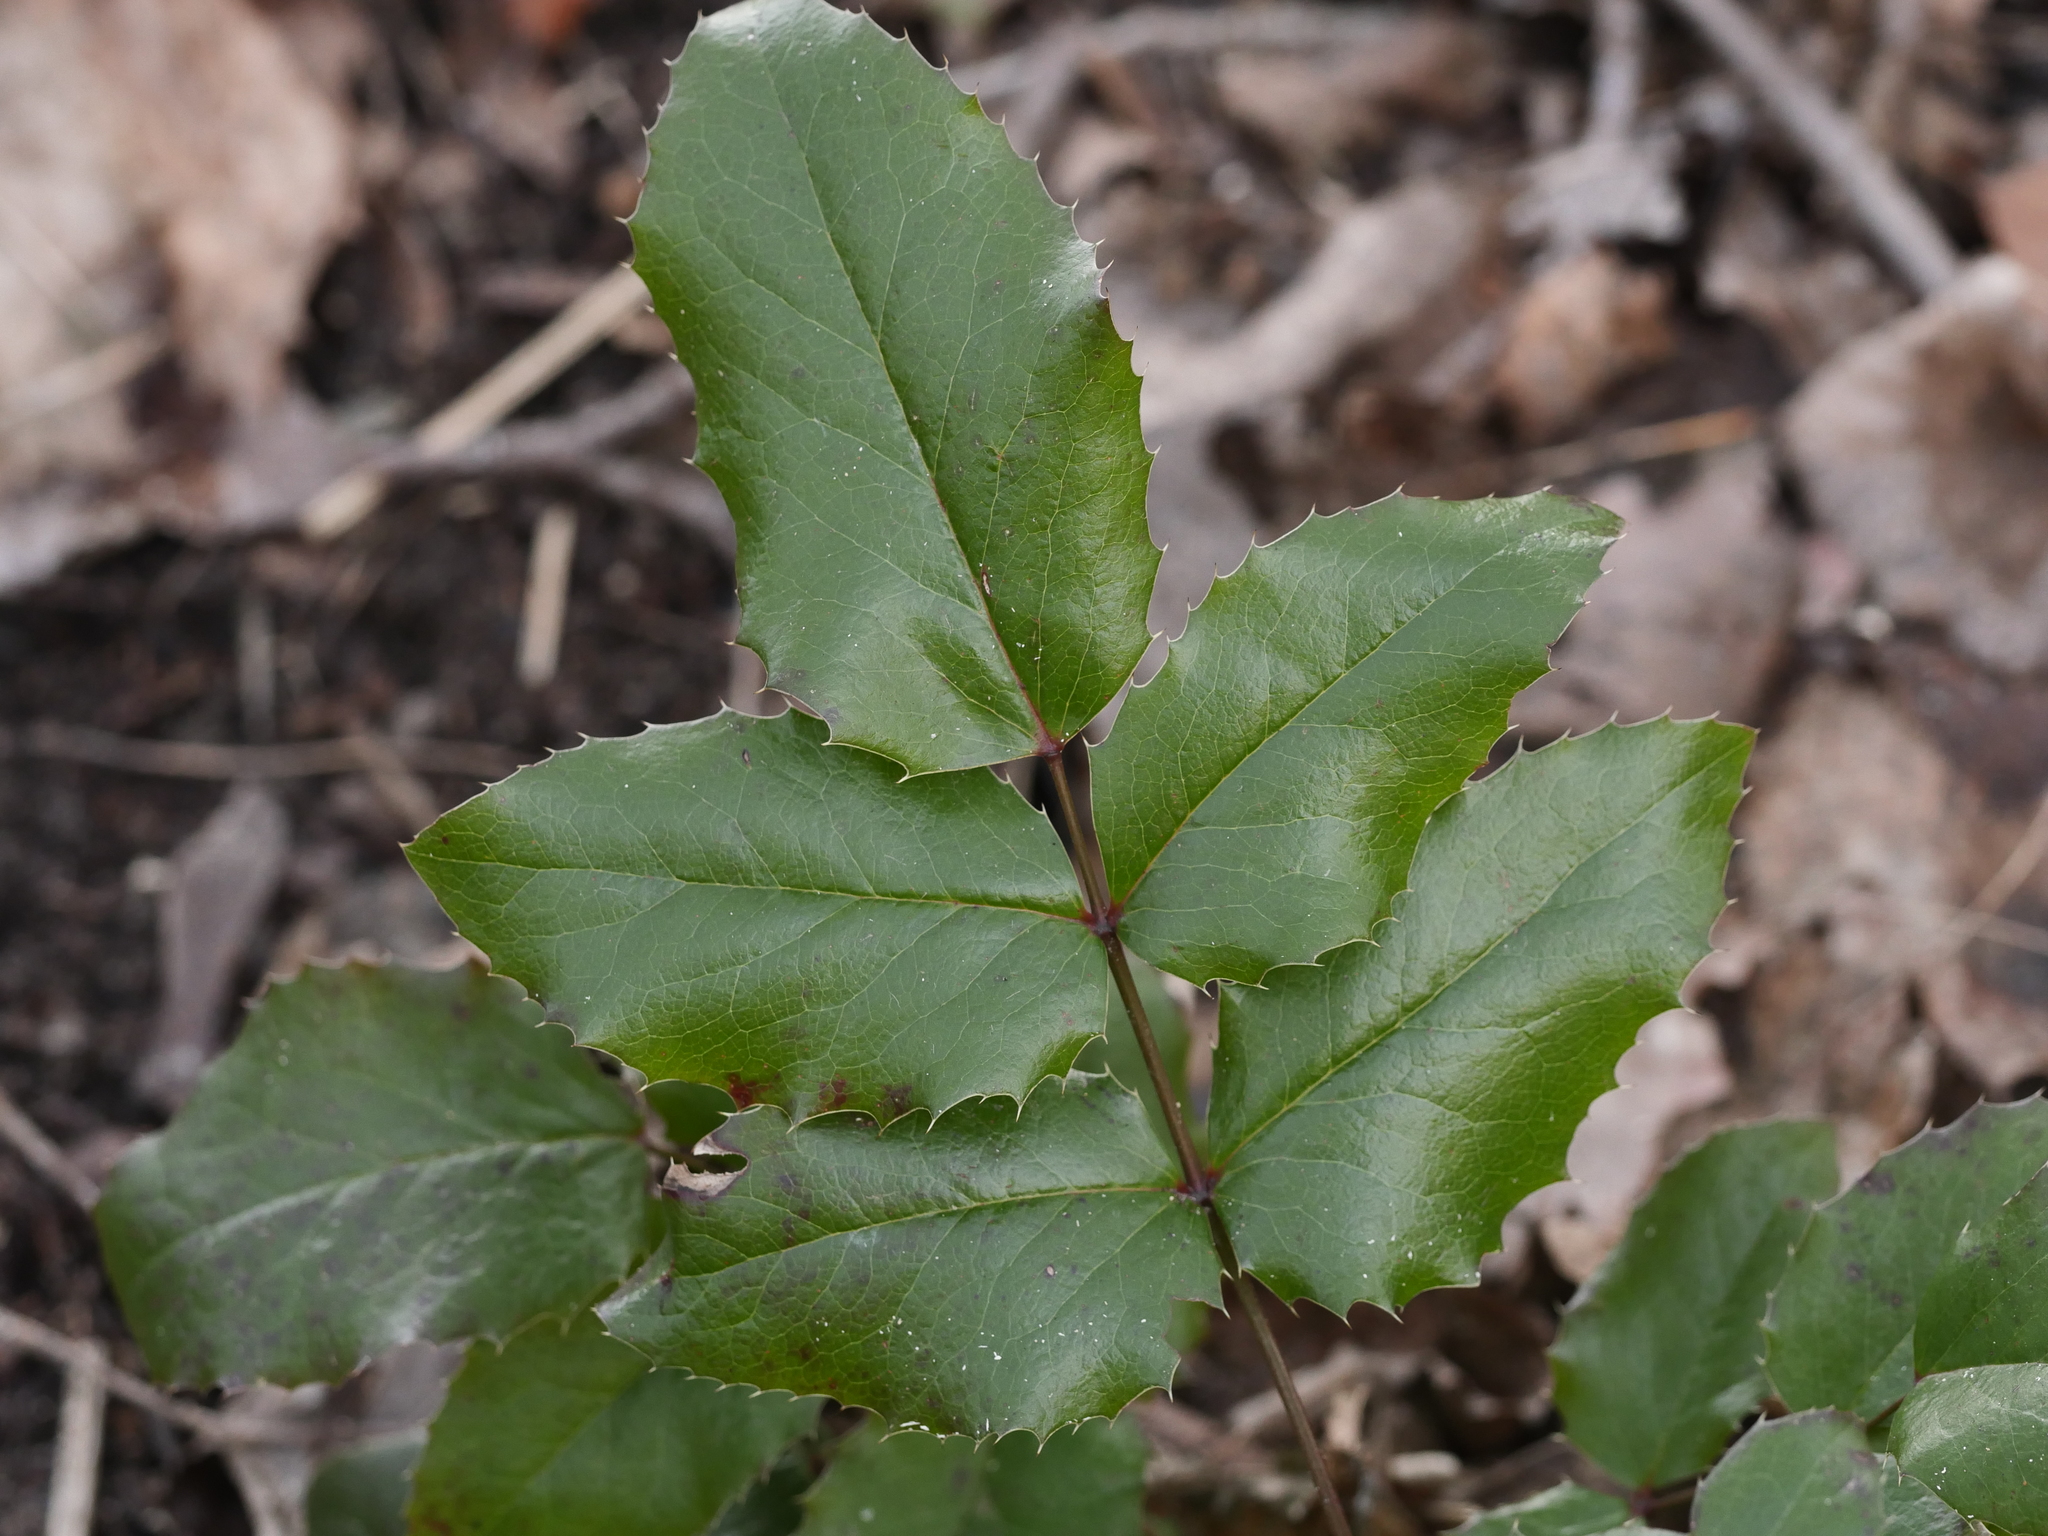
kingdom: Plantae
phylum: Tracheophyta
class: Magnoliopsida
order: Ranunculales
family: Berberidaceae
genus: Mahonia
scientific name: Mahonia aquifolium
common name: Oregon-grape
